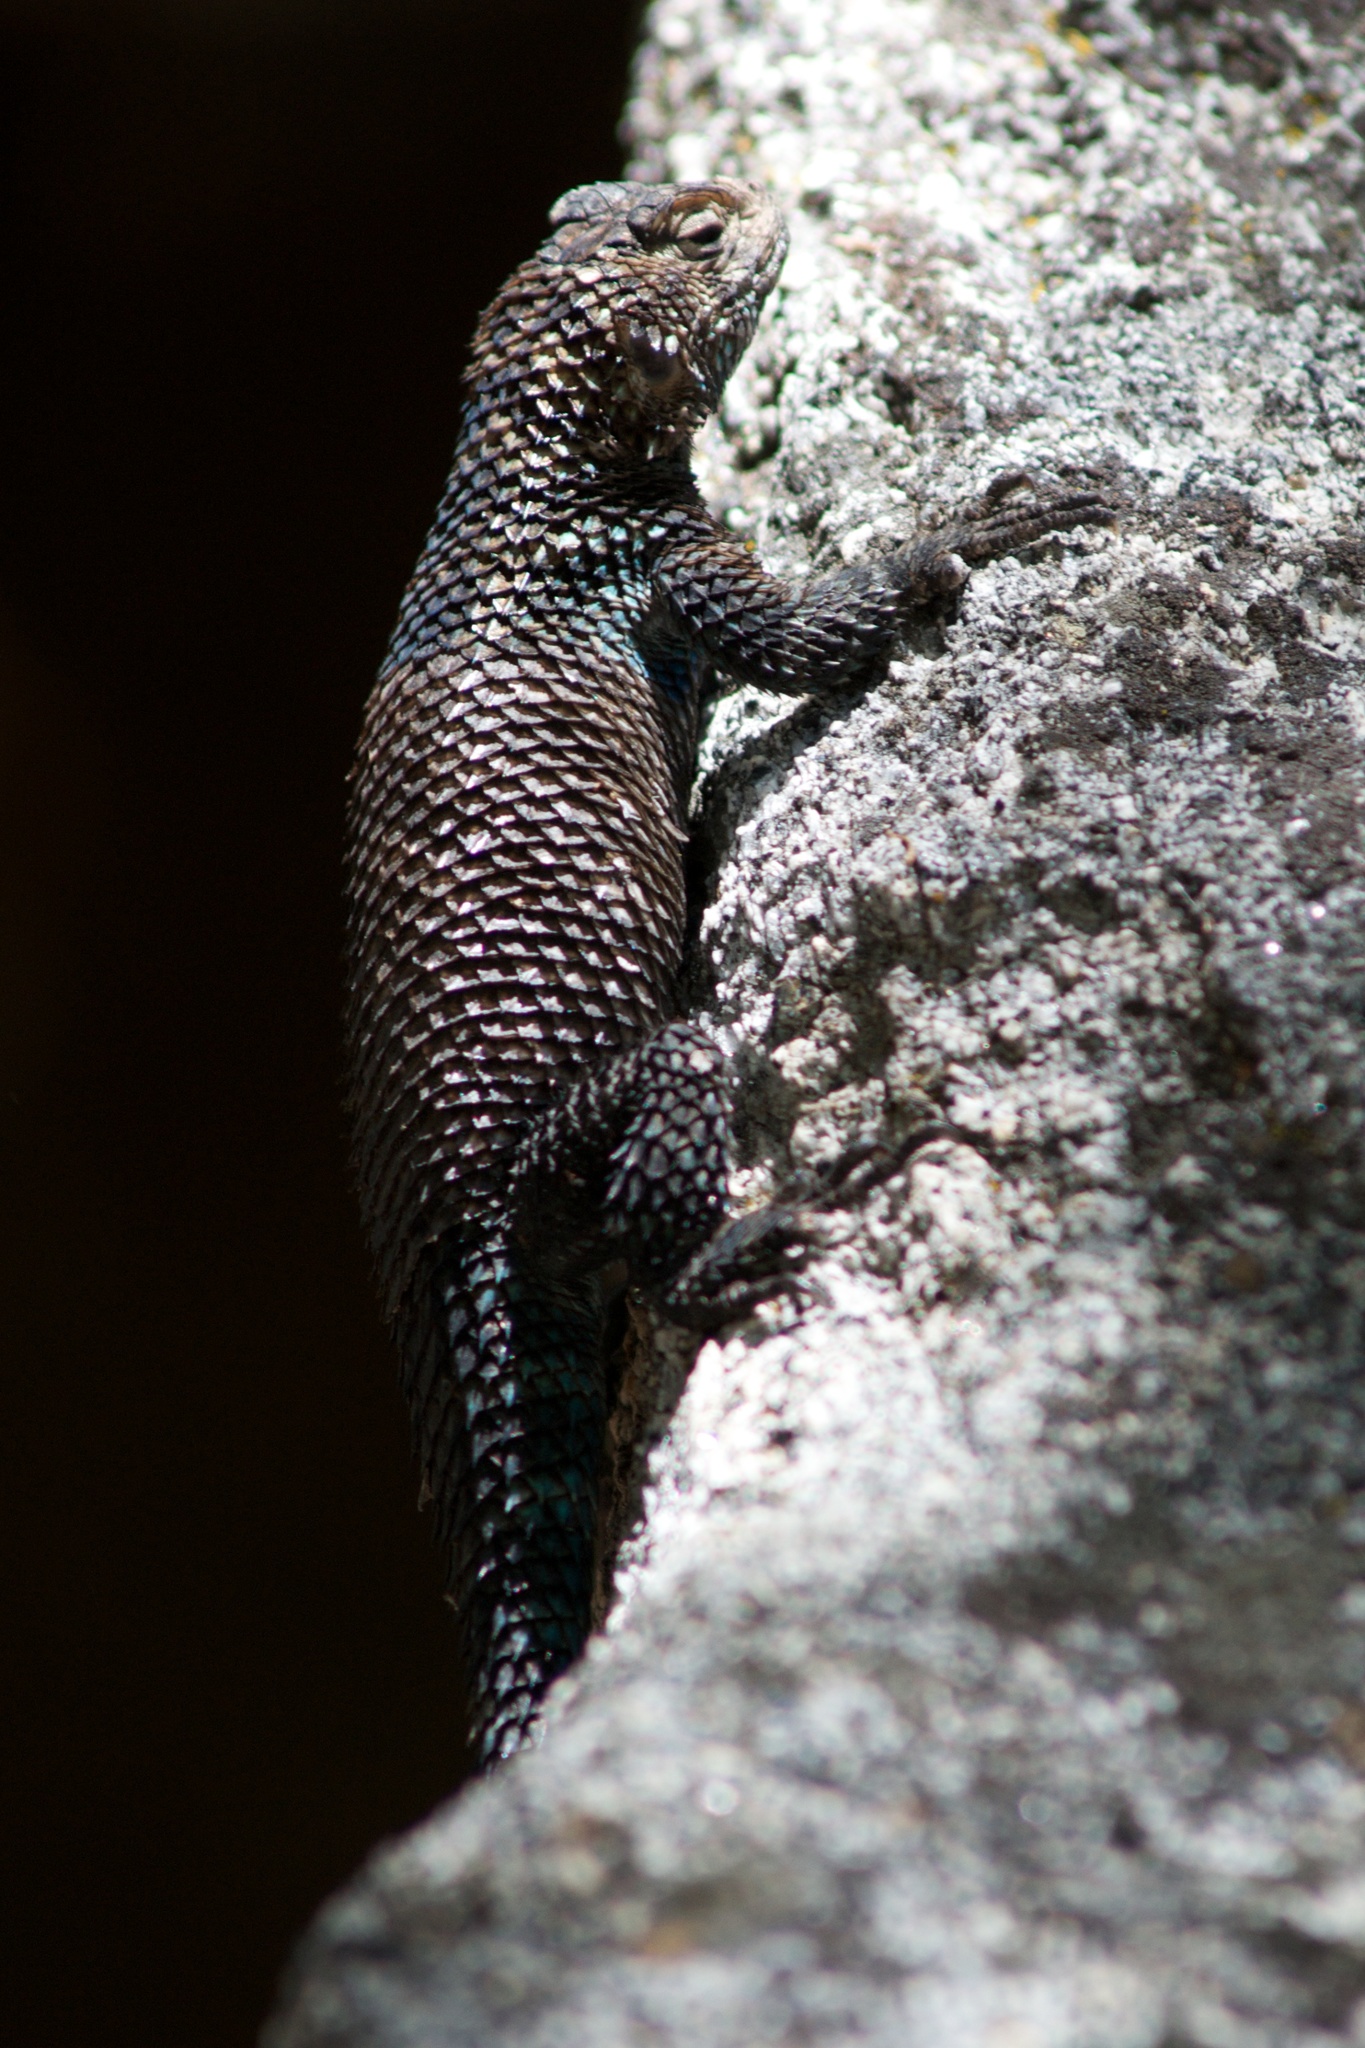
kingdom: Animalia
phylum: Chordata
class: Squamata
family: Phrynosomatidae
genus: Sceloporus
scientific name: Sceloporus orcutti
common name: Granite spiny lizard
